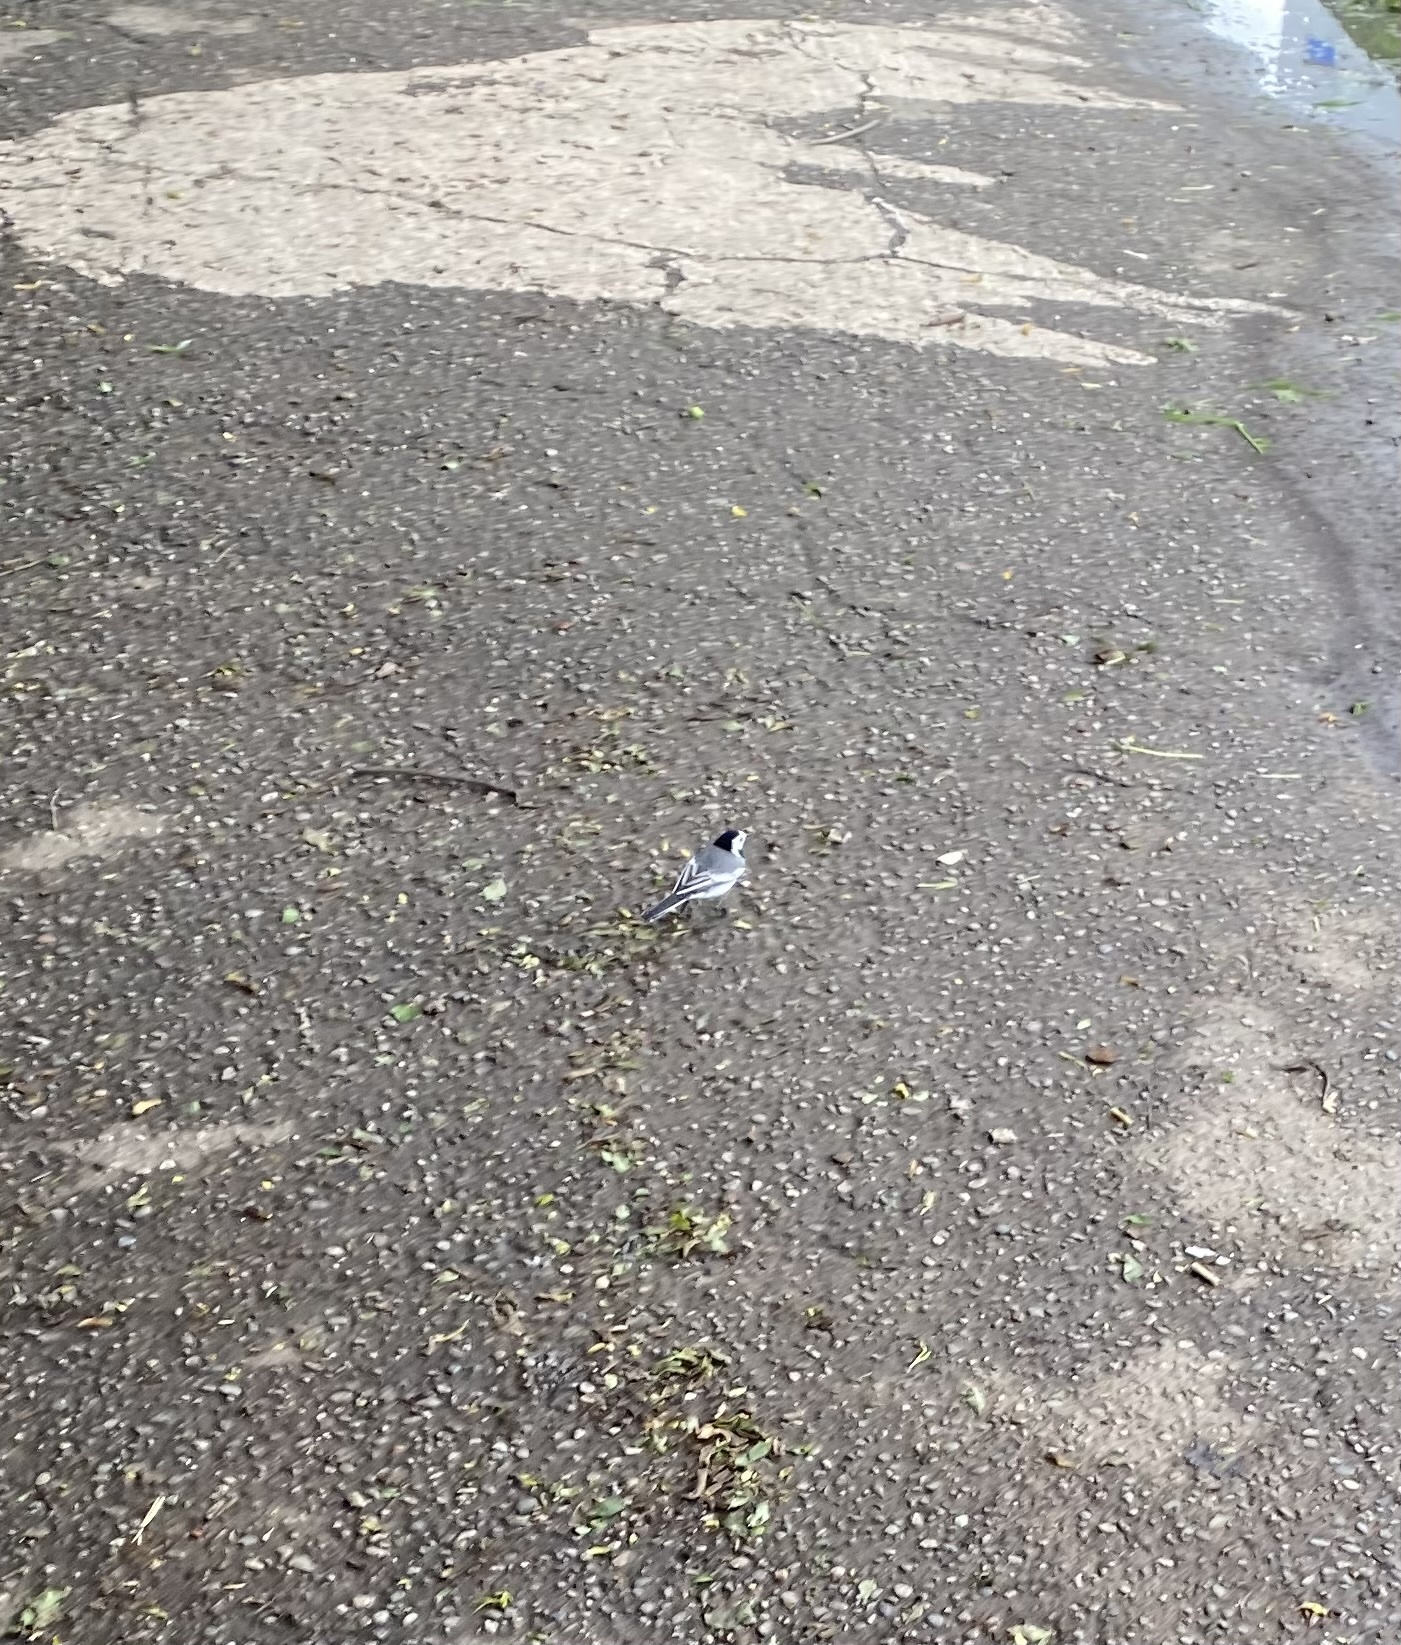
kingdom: Animalia
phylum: Chordata
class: Aves
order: Passeriformes
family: Motacillidae
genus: Motacilla
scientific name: Motacilla alba
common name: White wagtail
